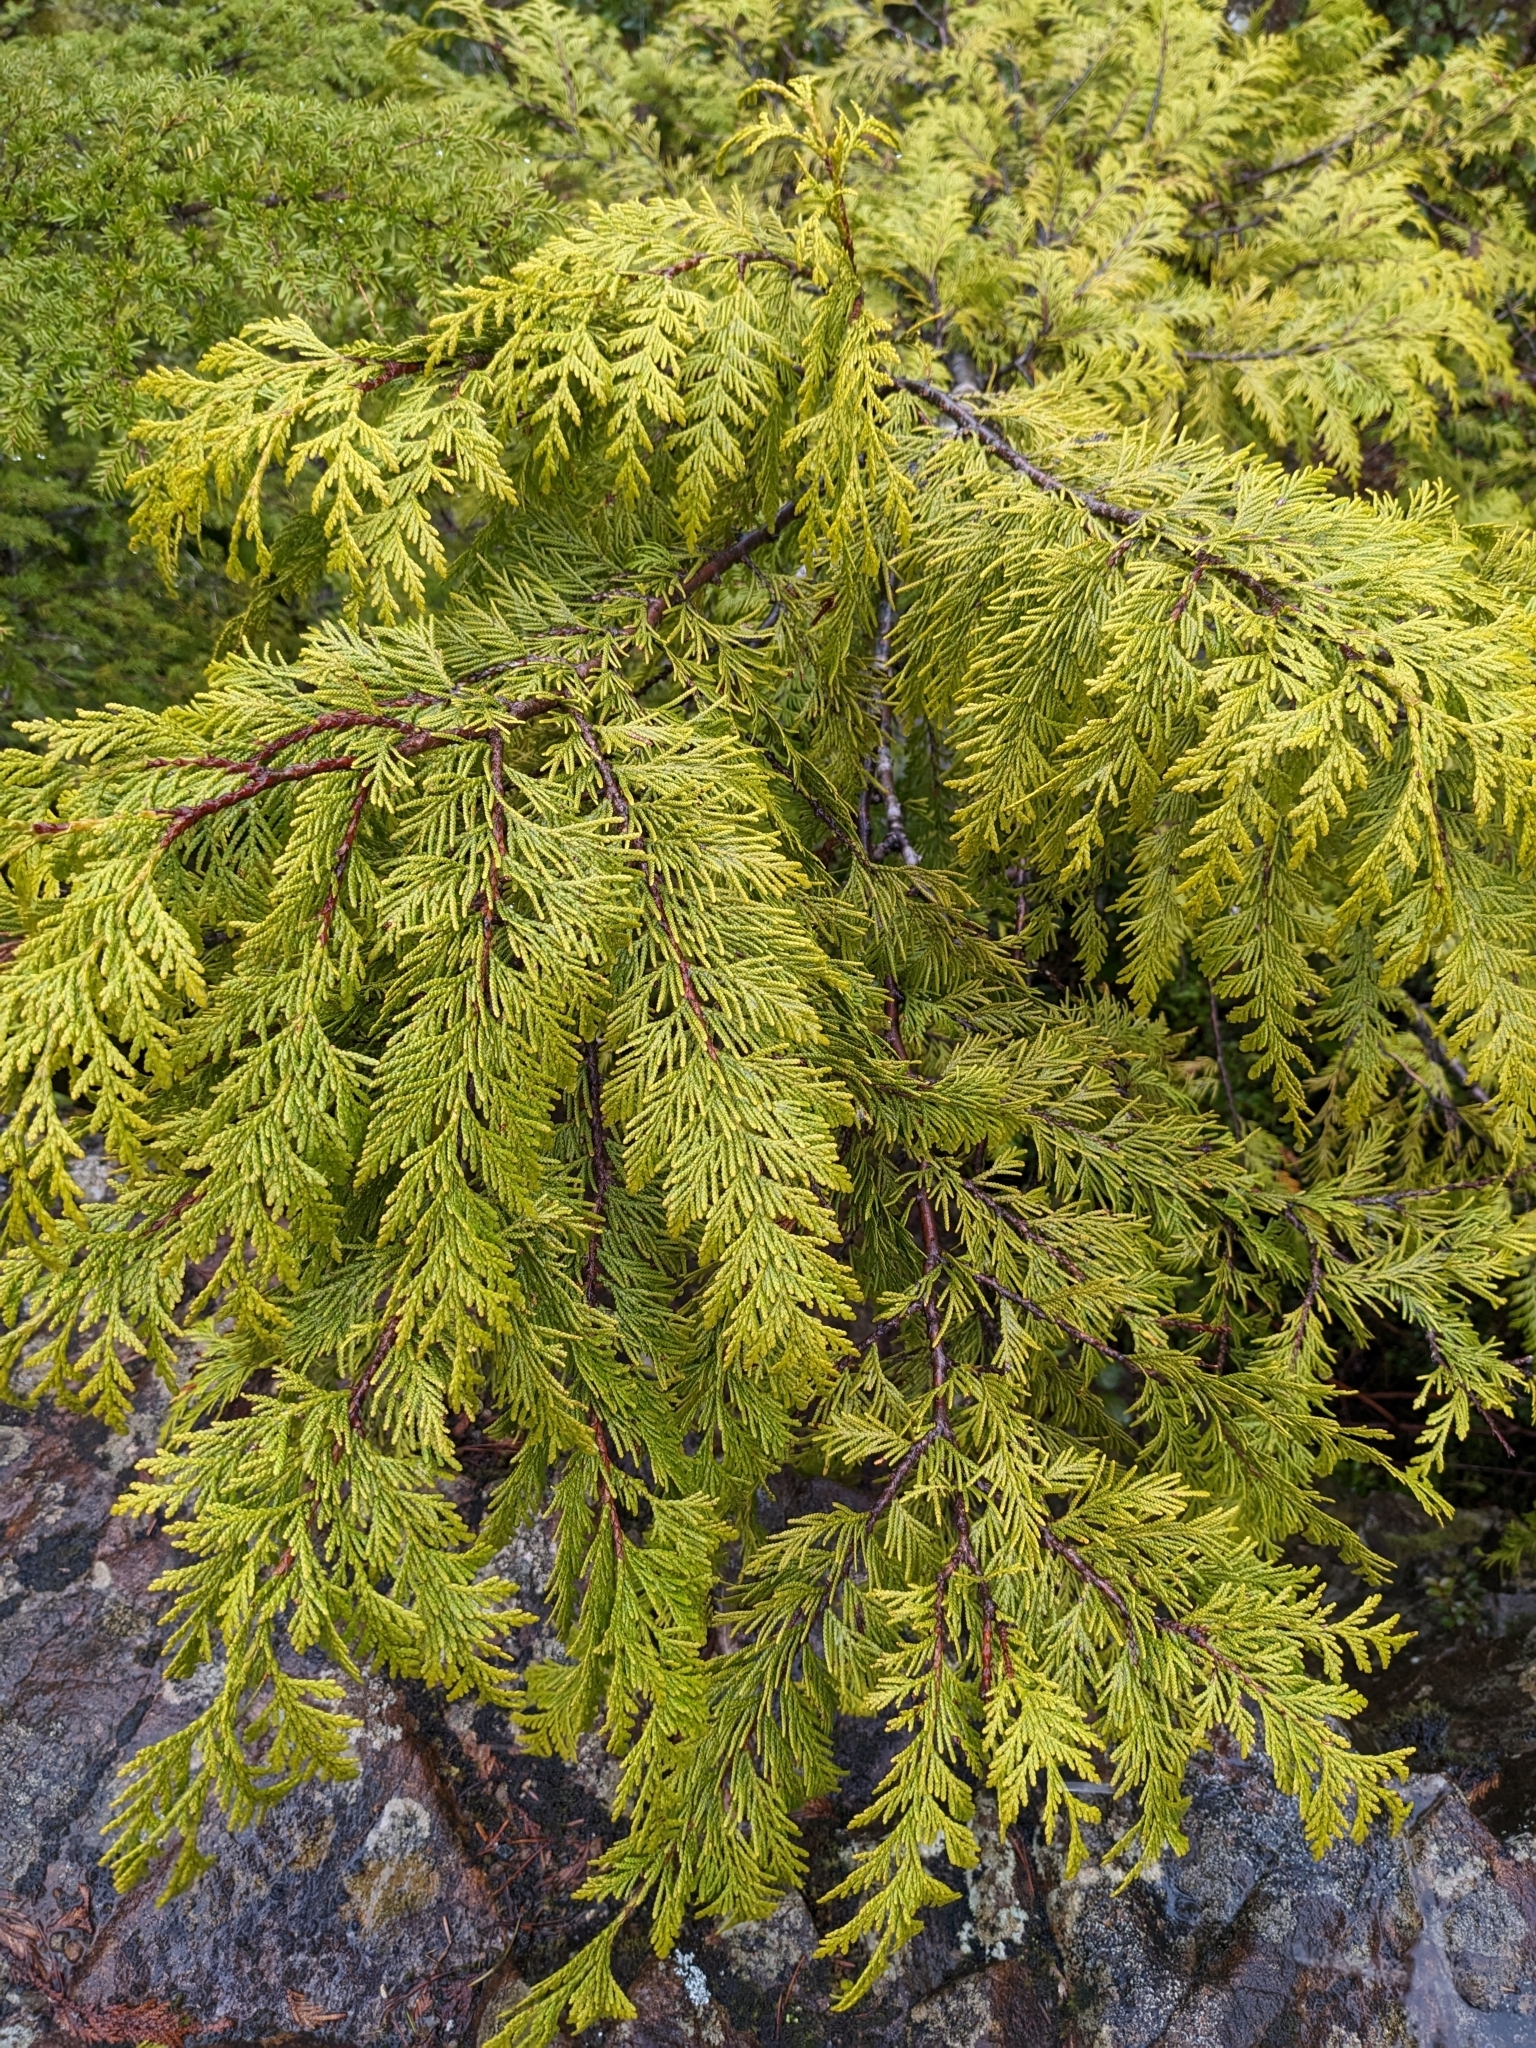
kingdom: Plantae
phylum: Tracheophyta
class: Pinopsida
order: Pinales
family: Cupressaceae
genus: Thuja
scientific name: Thuja plicata
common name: Western red-cedar
